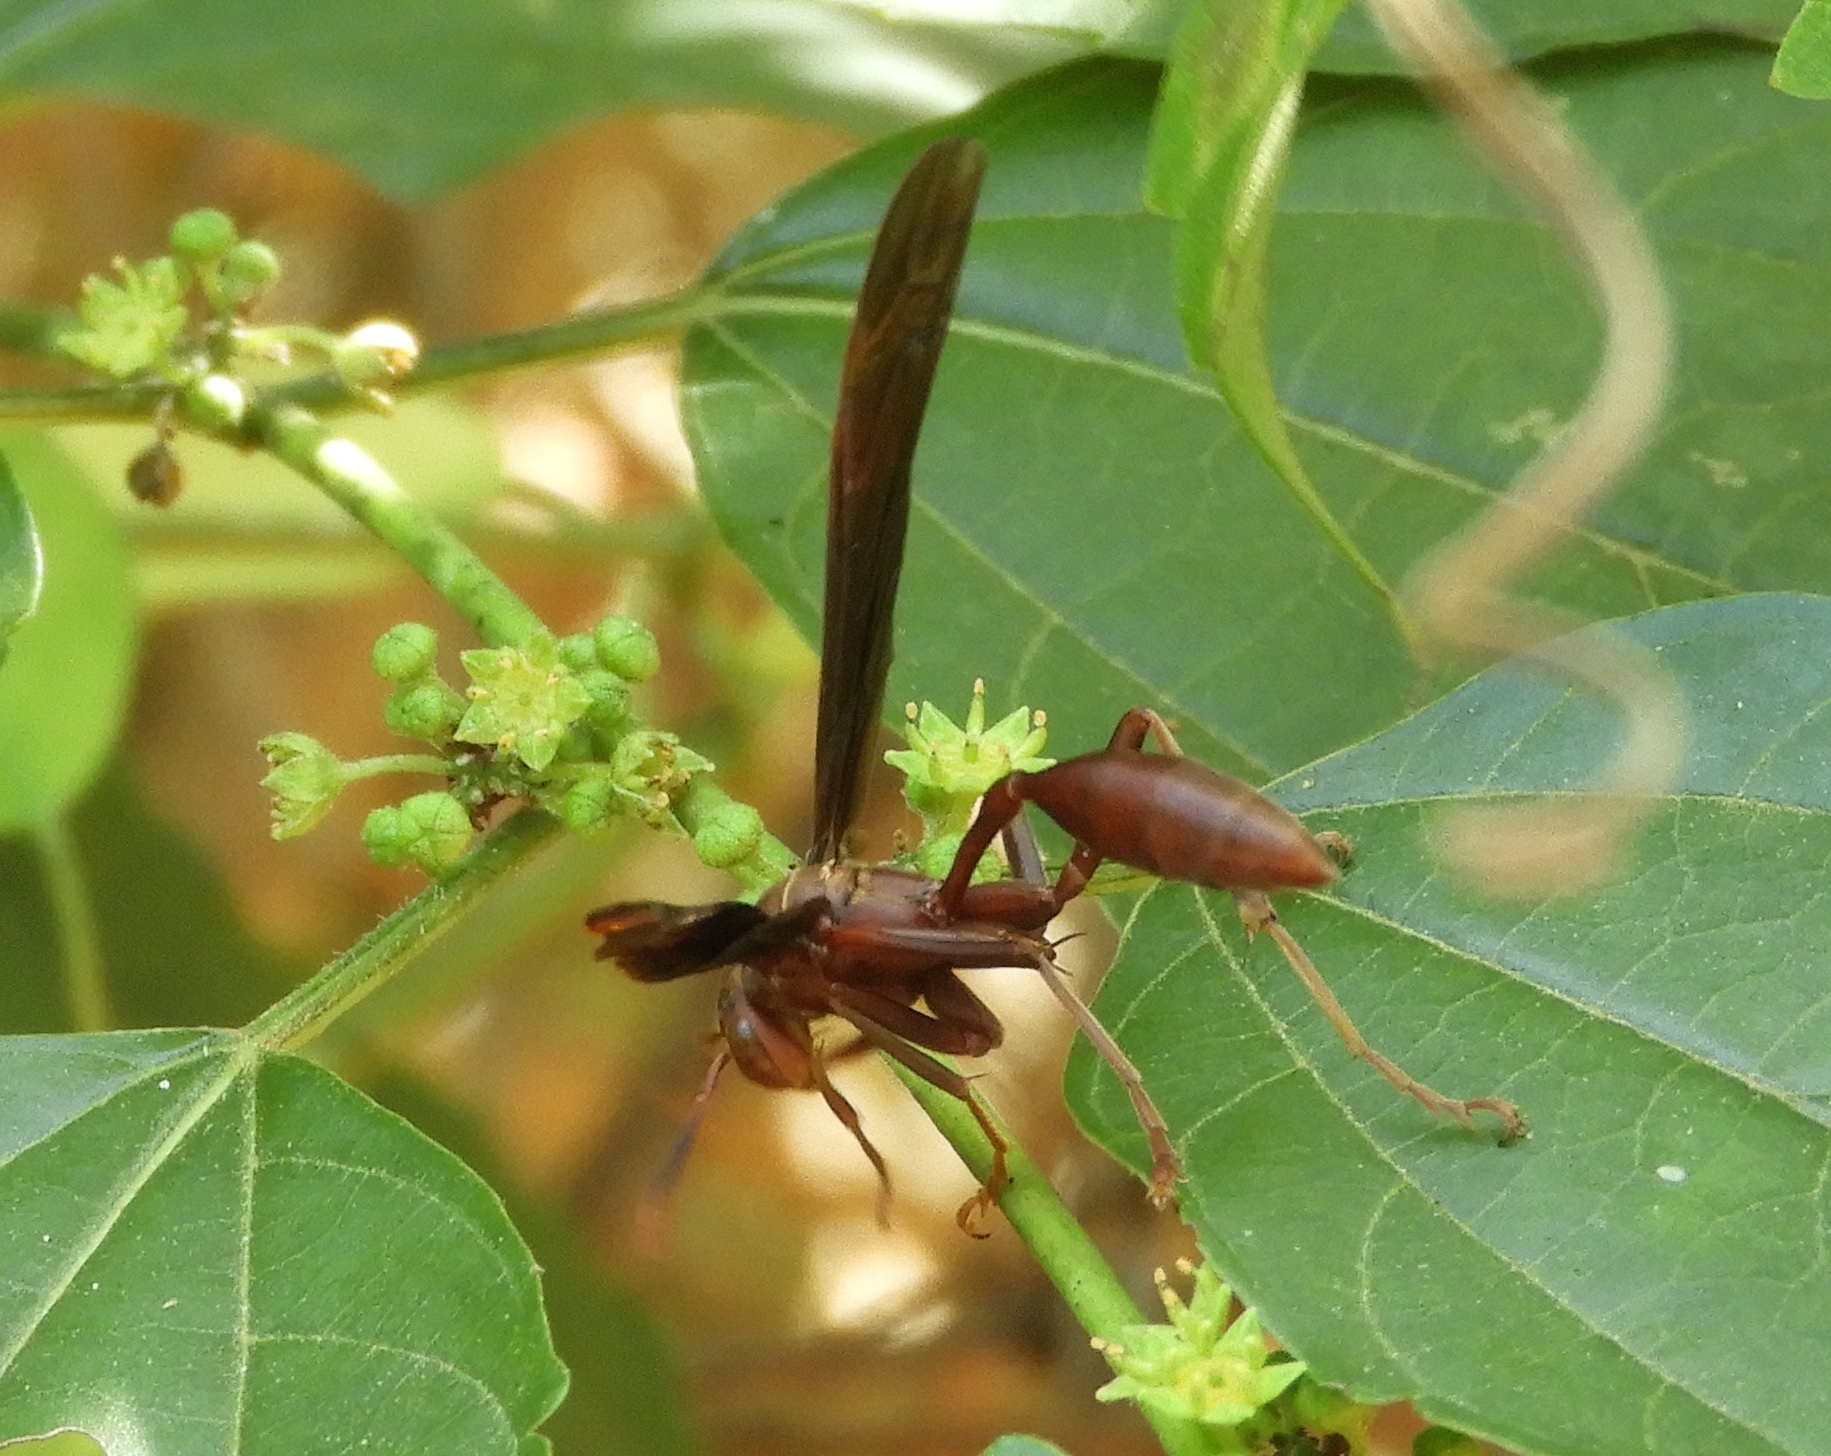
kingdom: Animalia
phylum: Arthropoda
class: Insecta
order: Hymenoptera
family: Vespidae
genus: Mischocyttarus
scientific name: Mischocyttarus melanarius
